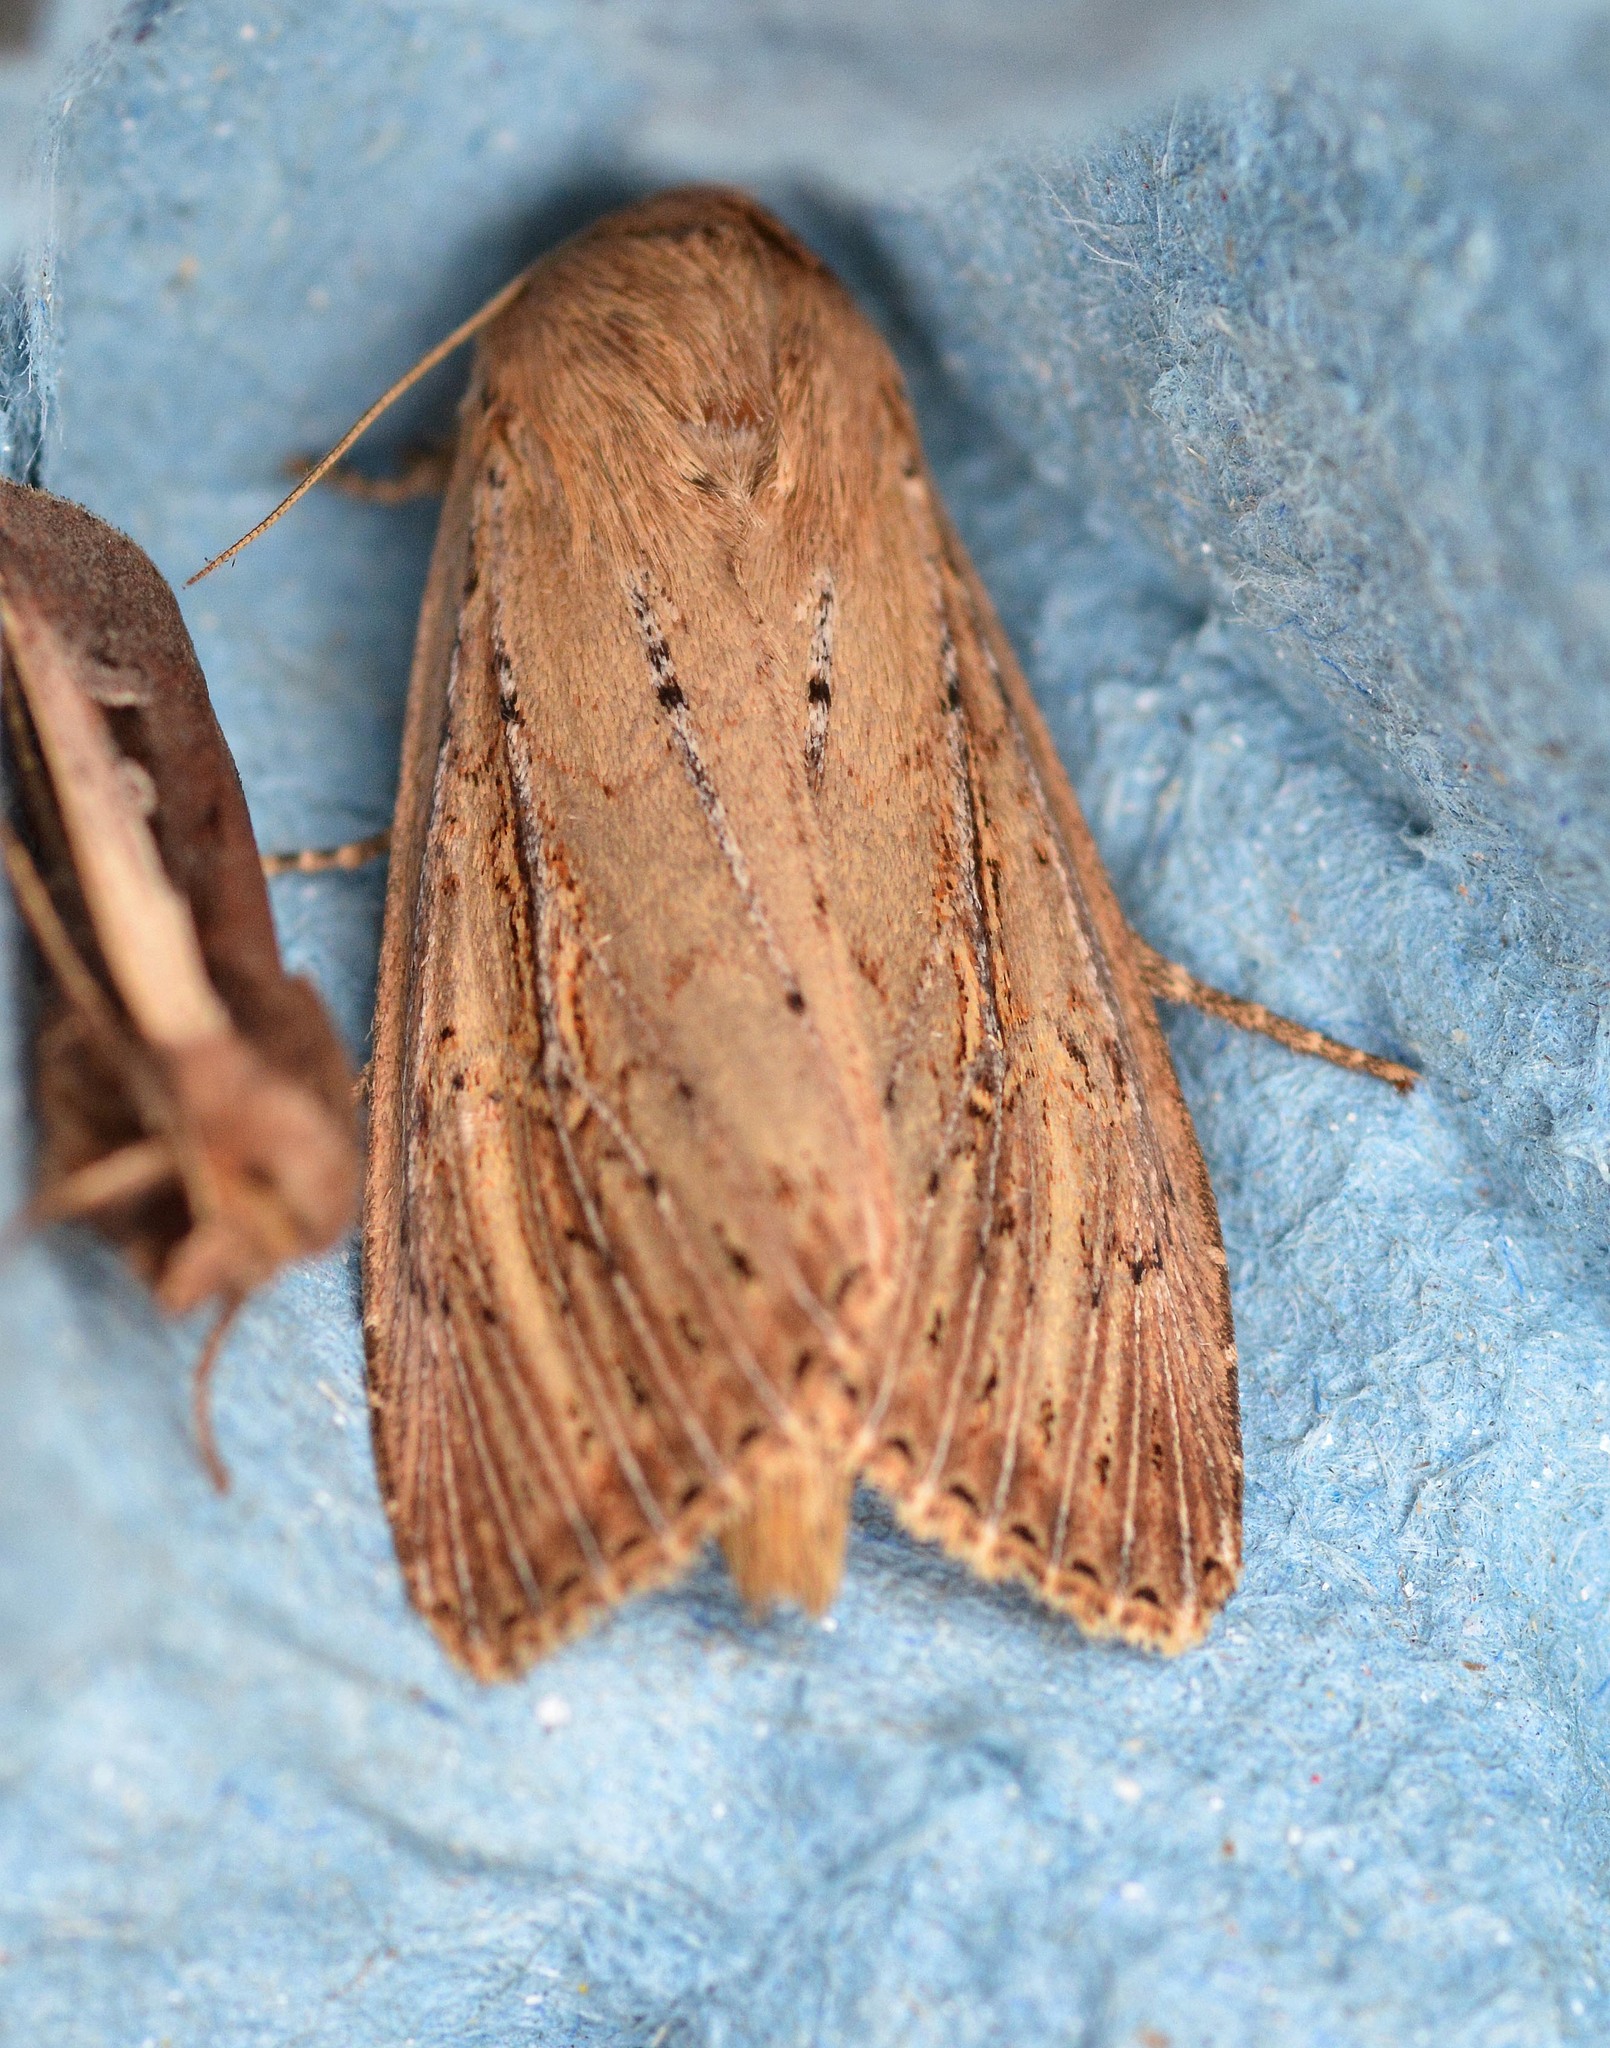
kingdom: Animalia
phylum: Arthropoda
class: Insecta
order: Lepidoptera
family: Noctuidae
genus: Nonagria
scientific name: Nonagria typhae
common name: Bulrush wainscot
